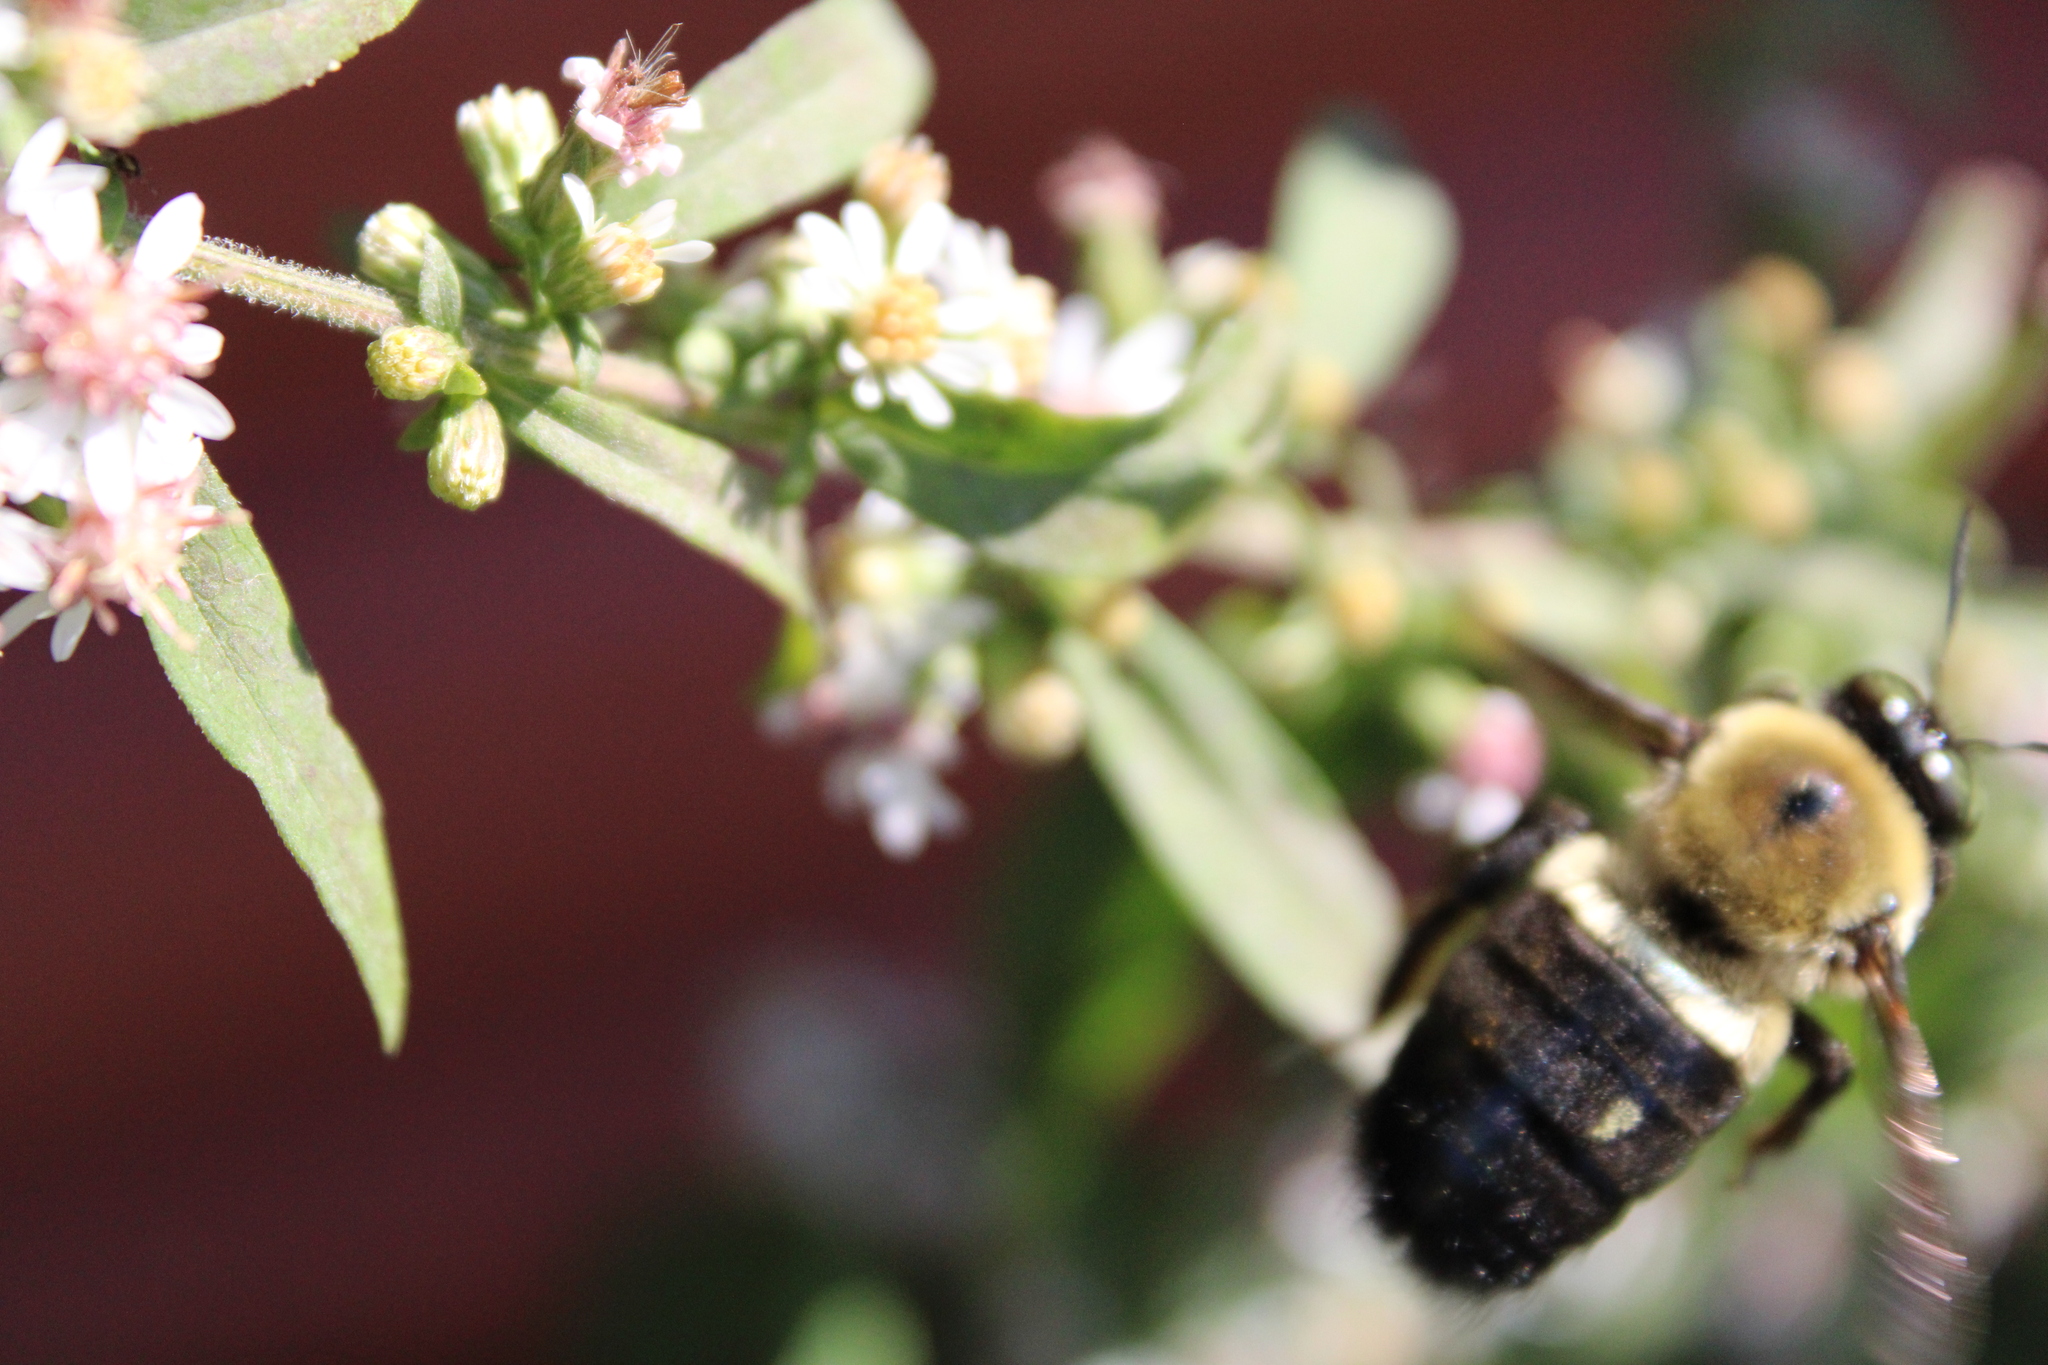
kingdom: Animalia
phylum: Arthropoda
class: Insecta
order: Hymenoptera
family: Apidae
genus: Xylocopa
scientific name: Xylocopa virginica
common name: Carpenter bee
